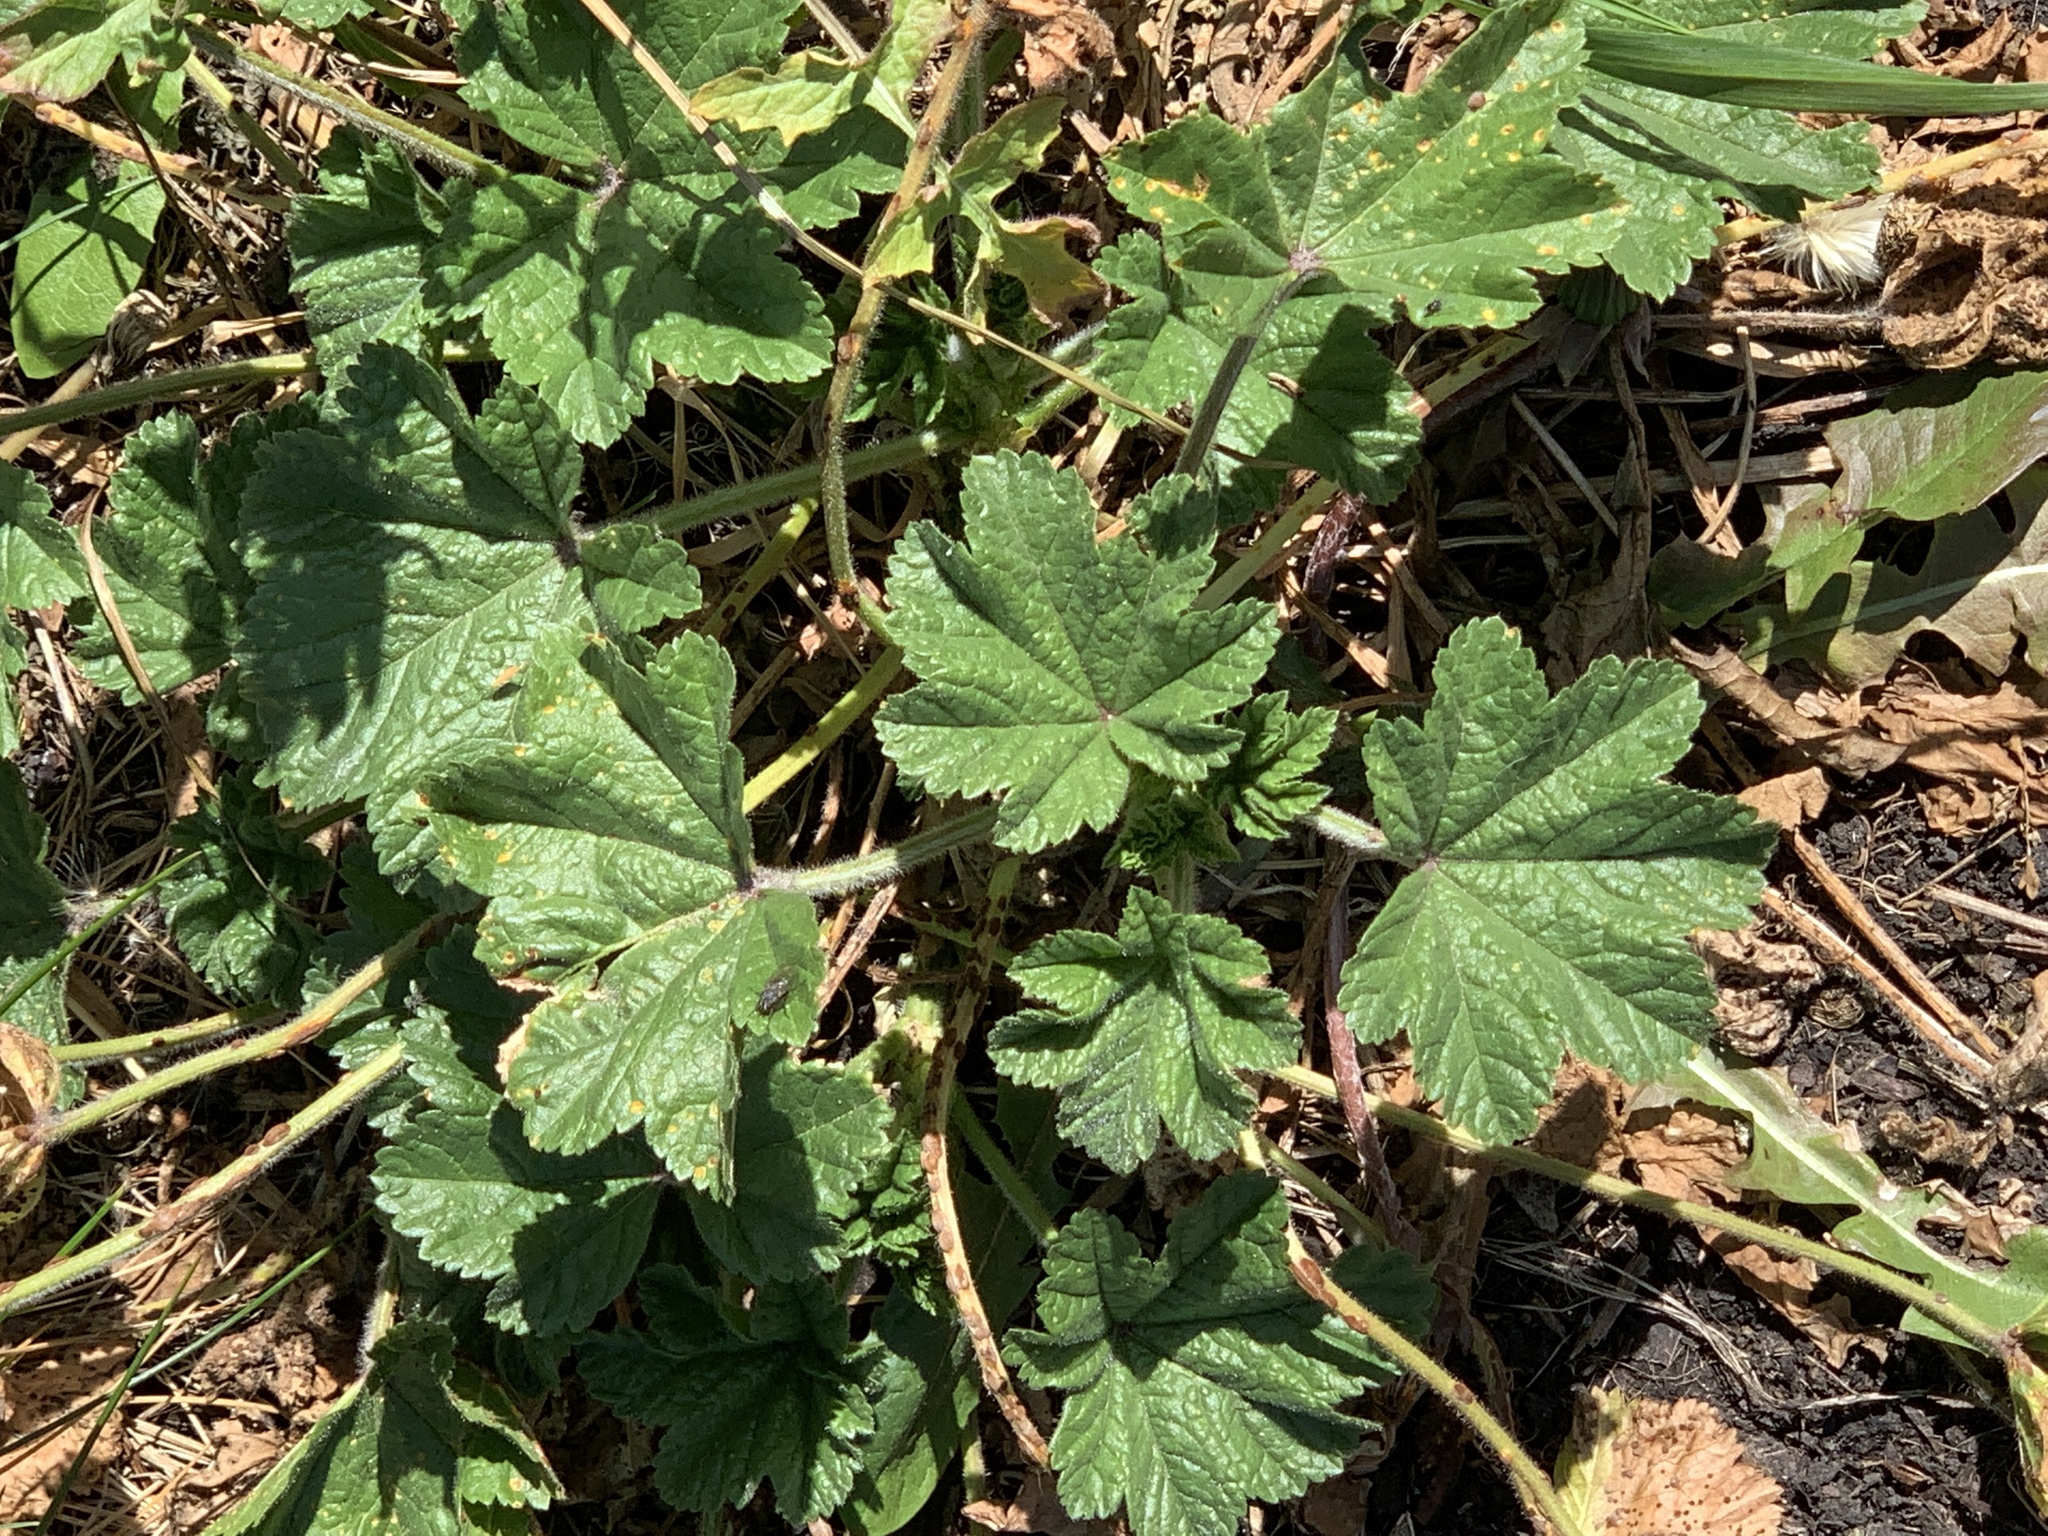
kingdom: Plantae
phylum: Tracheophyta
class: Magnoliopsida
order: Malvales
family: Malvaceae
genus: Malva
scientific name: Malva sylvestris
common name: Common mallow
